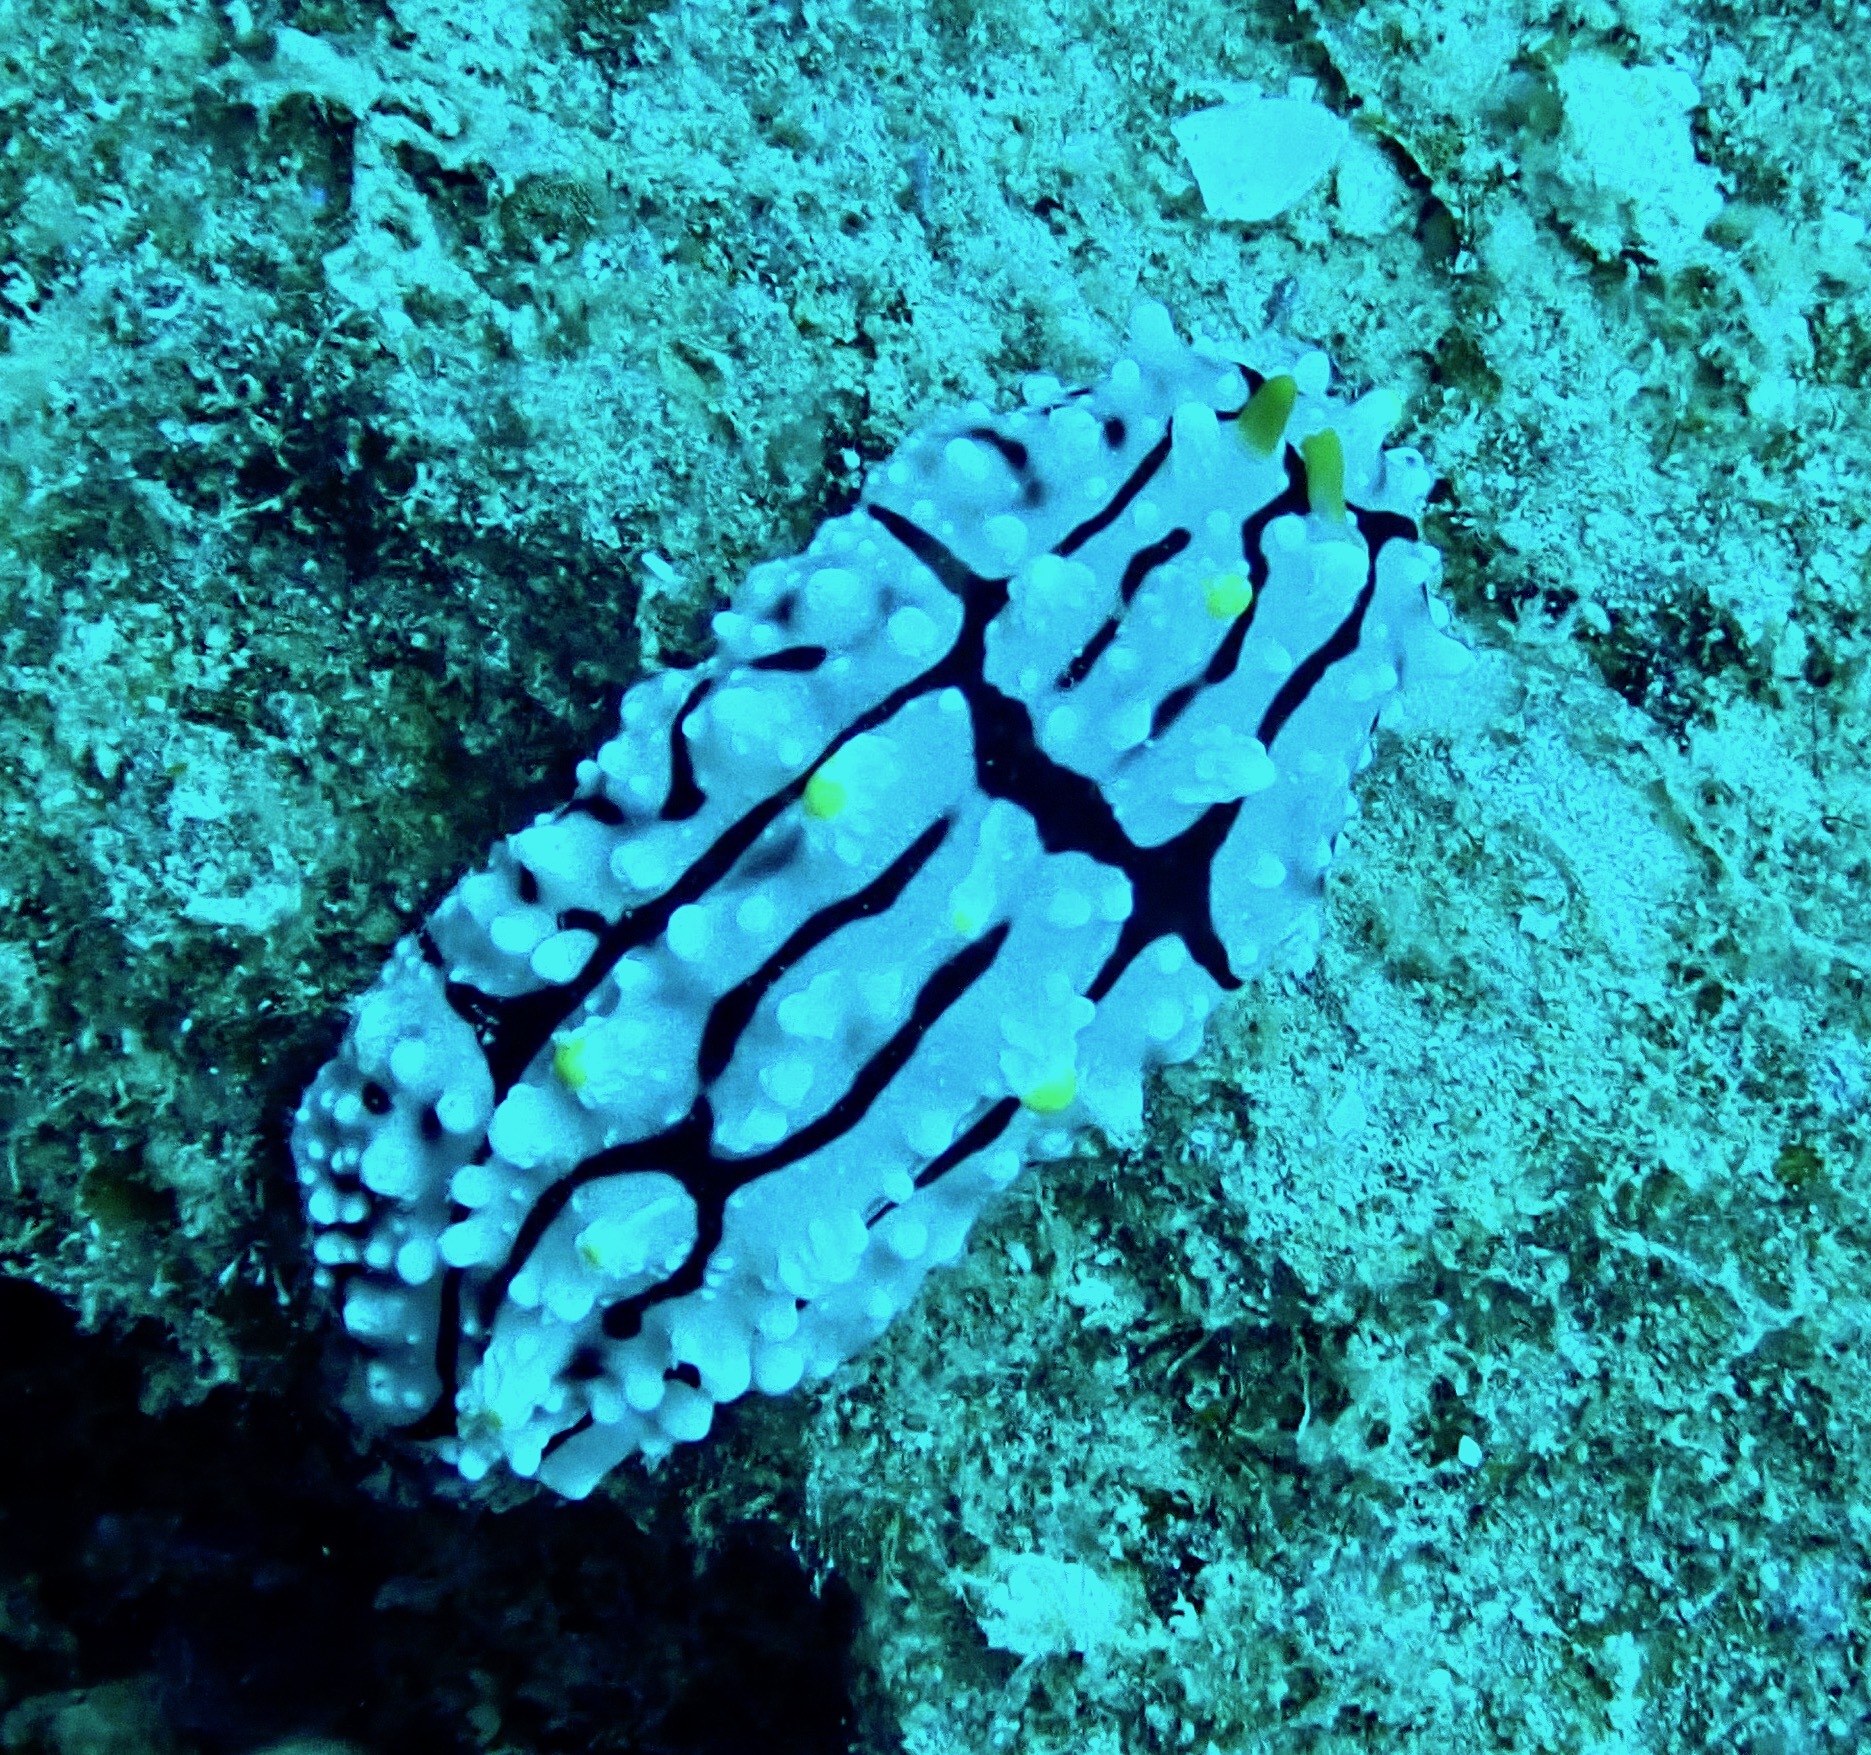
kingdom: Animalia
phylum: Mollusca
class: Gastropoda
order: Nudibranchia
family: Phyllidiidae
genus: Phyllidia
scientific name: Phyllidia elegans
